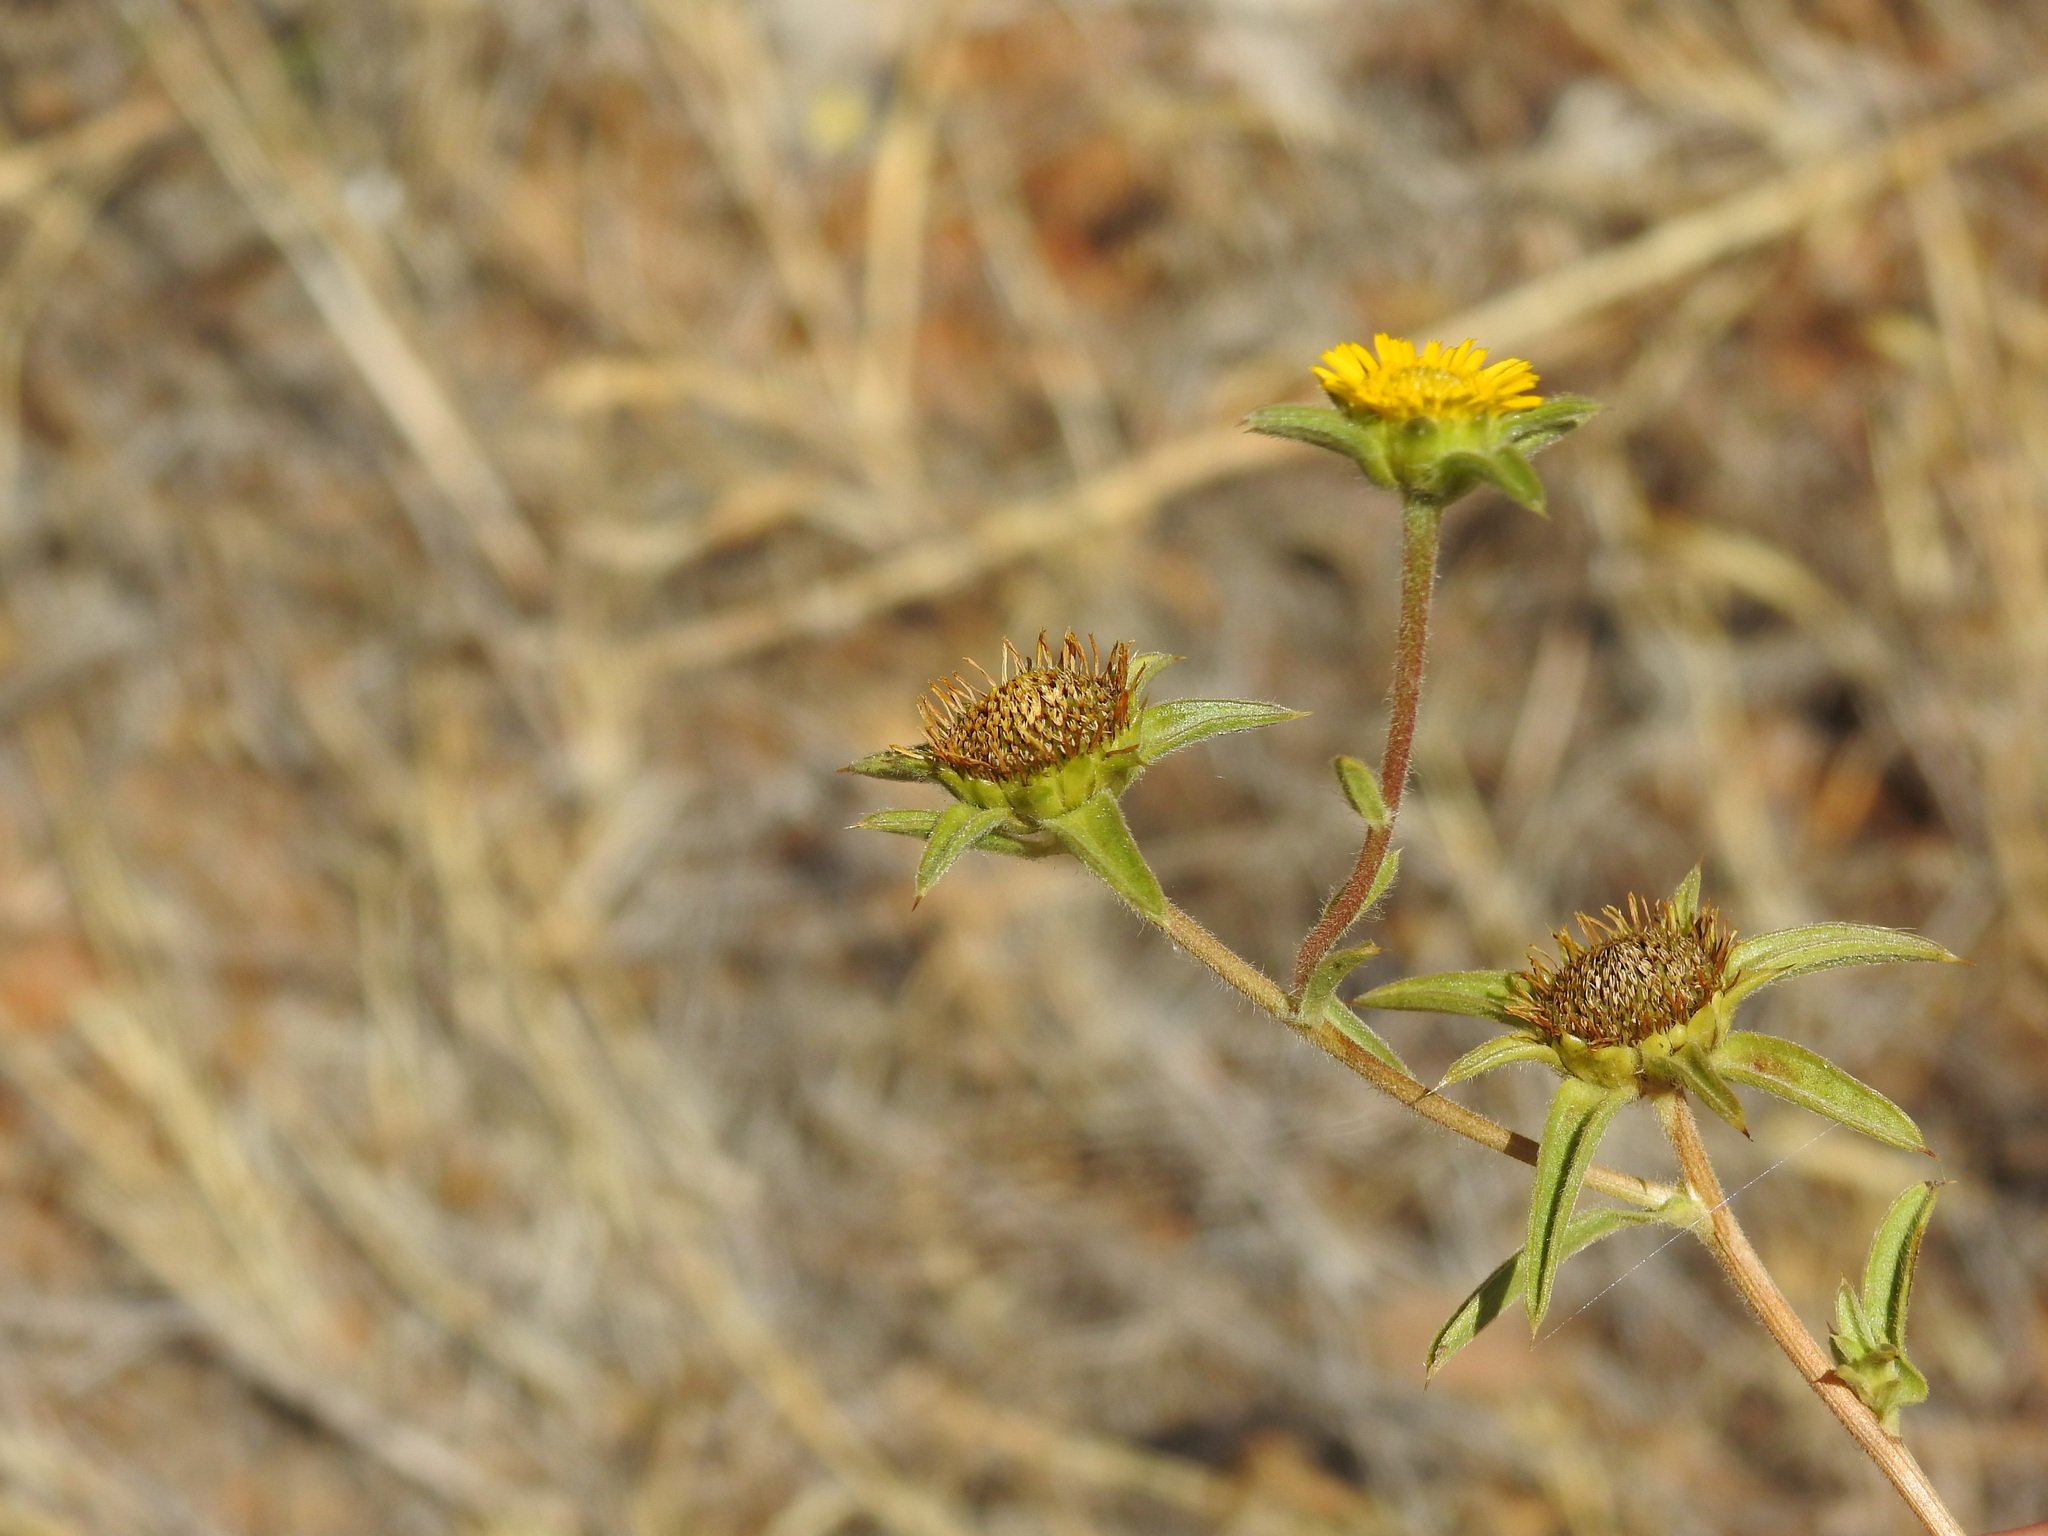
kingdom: Plantae
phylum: Tracheophyta
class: Magnoliopsida
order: Asterales
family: Asteraceae
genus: Pallenis
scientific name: Pallenis spinosa
